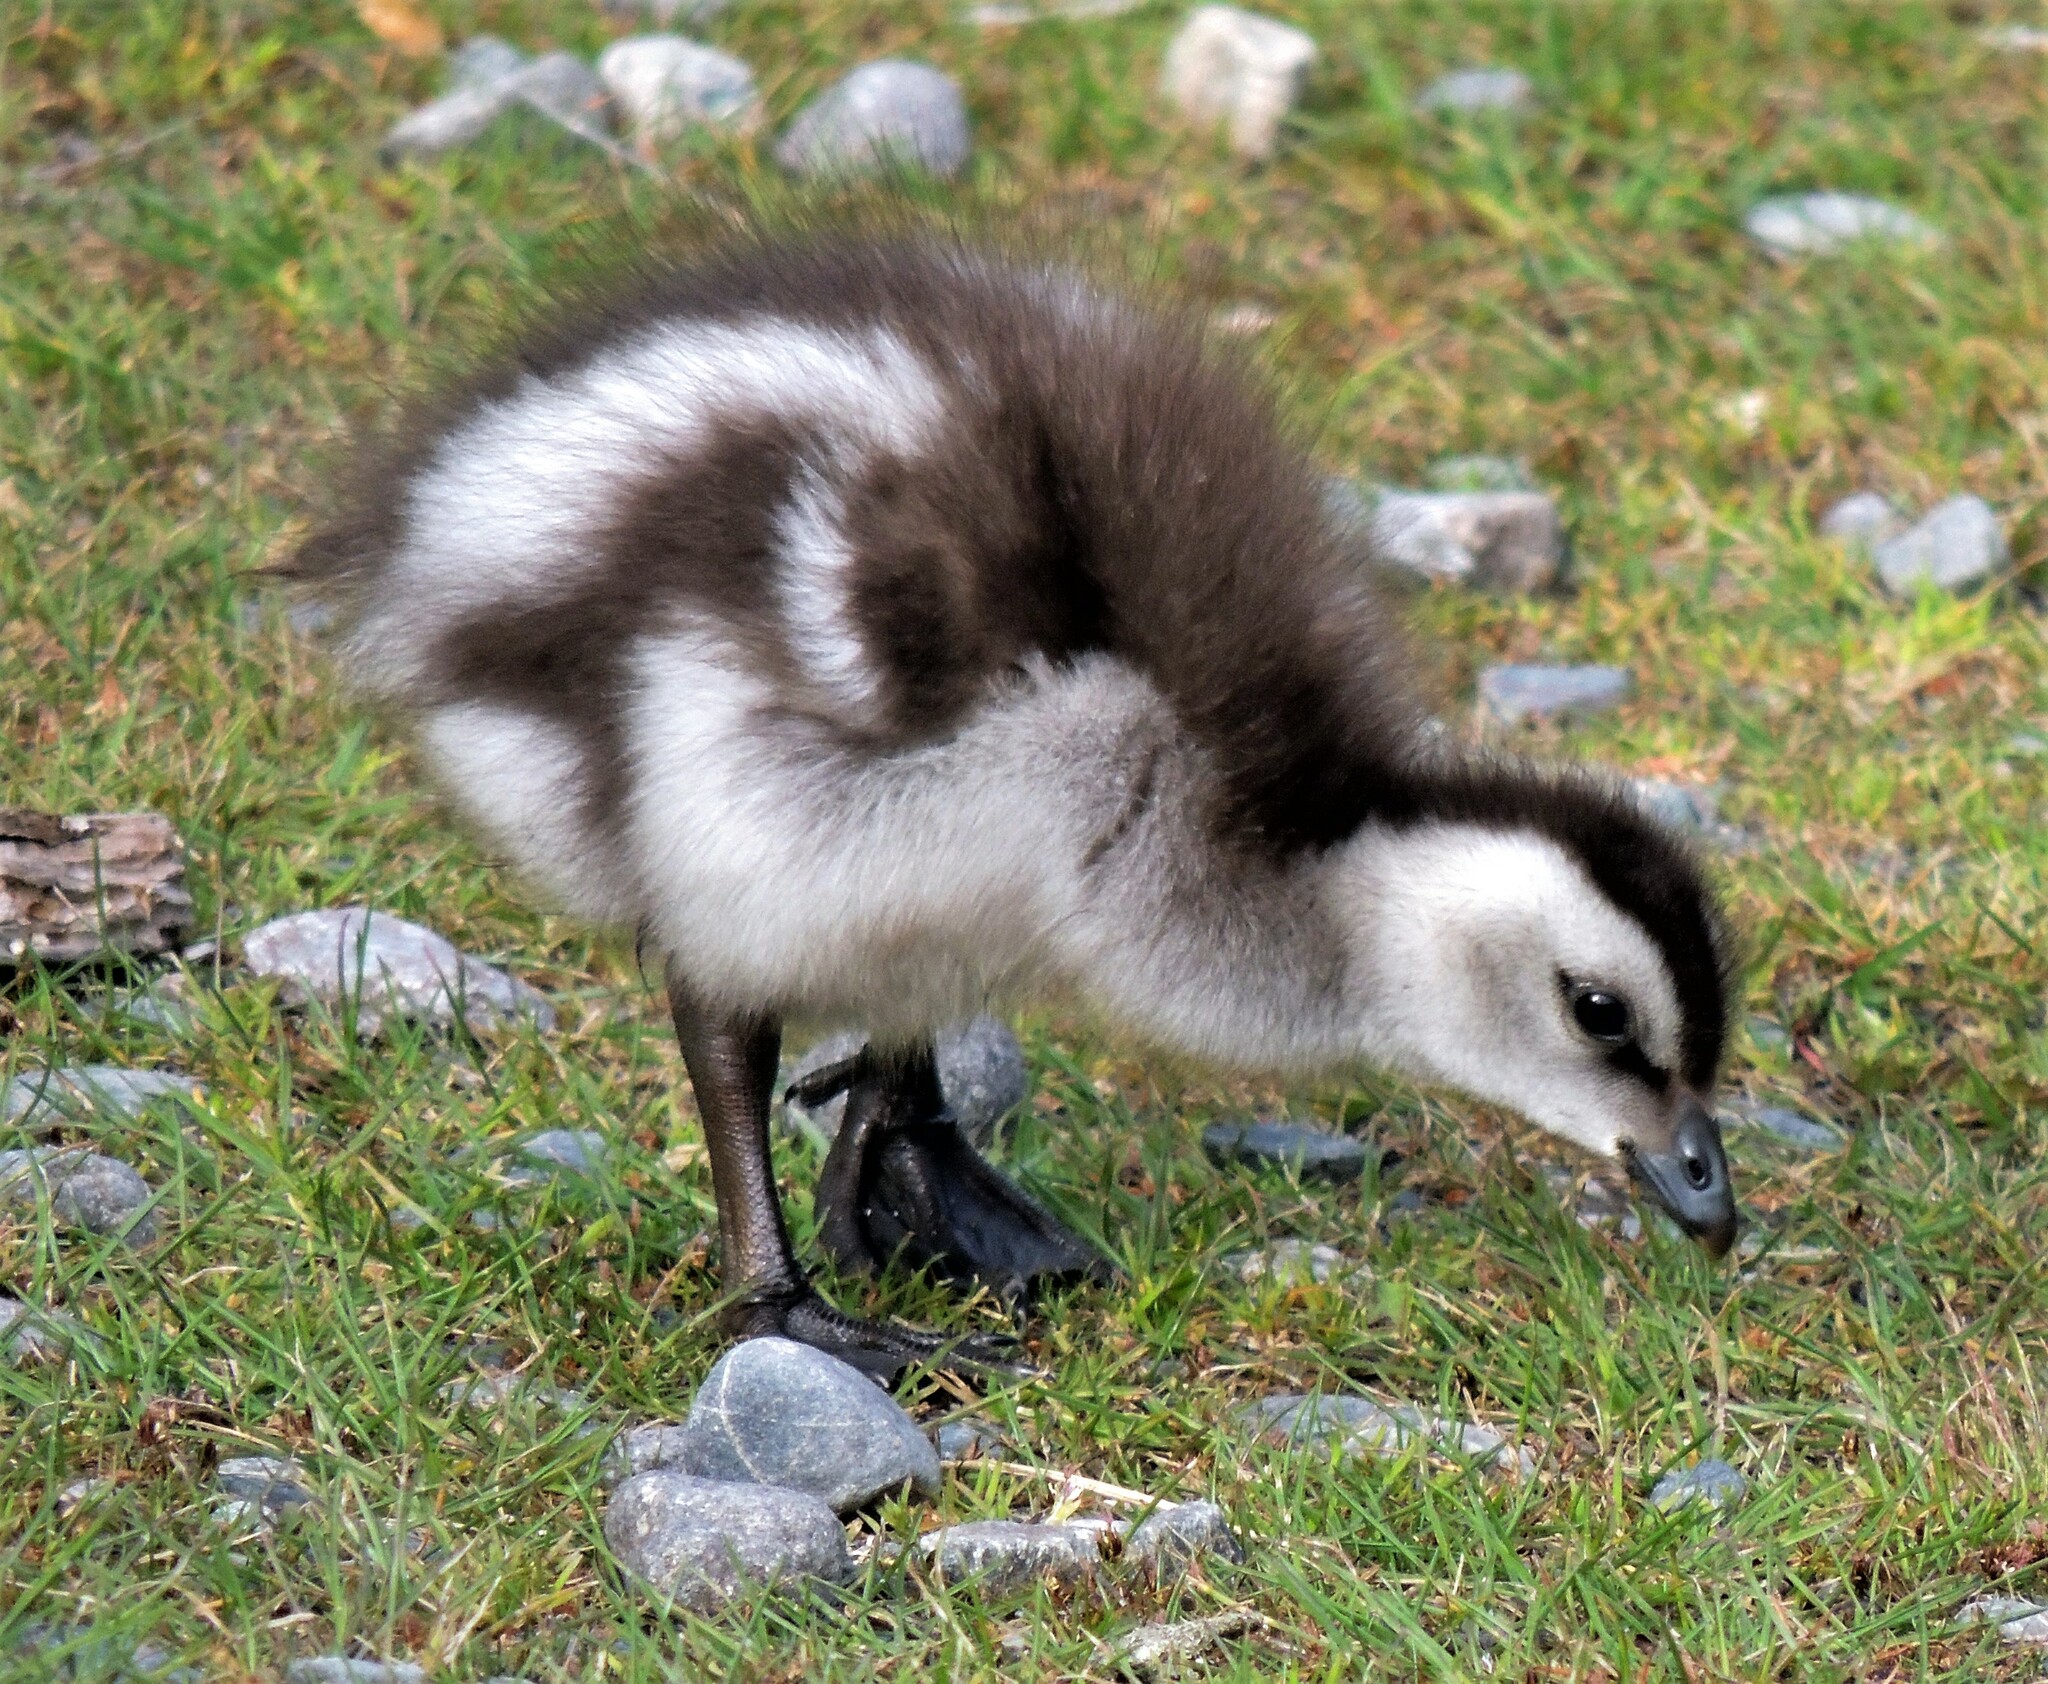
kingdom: Animalia
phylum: Chordata
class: Aves
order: Anseriformes
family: Anatidae
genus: Chloephaga
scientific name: Chloephaga poliocephala
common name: Ashy-headed goose
